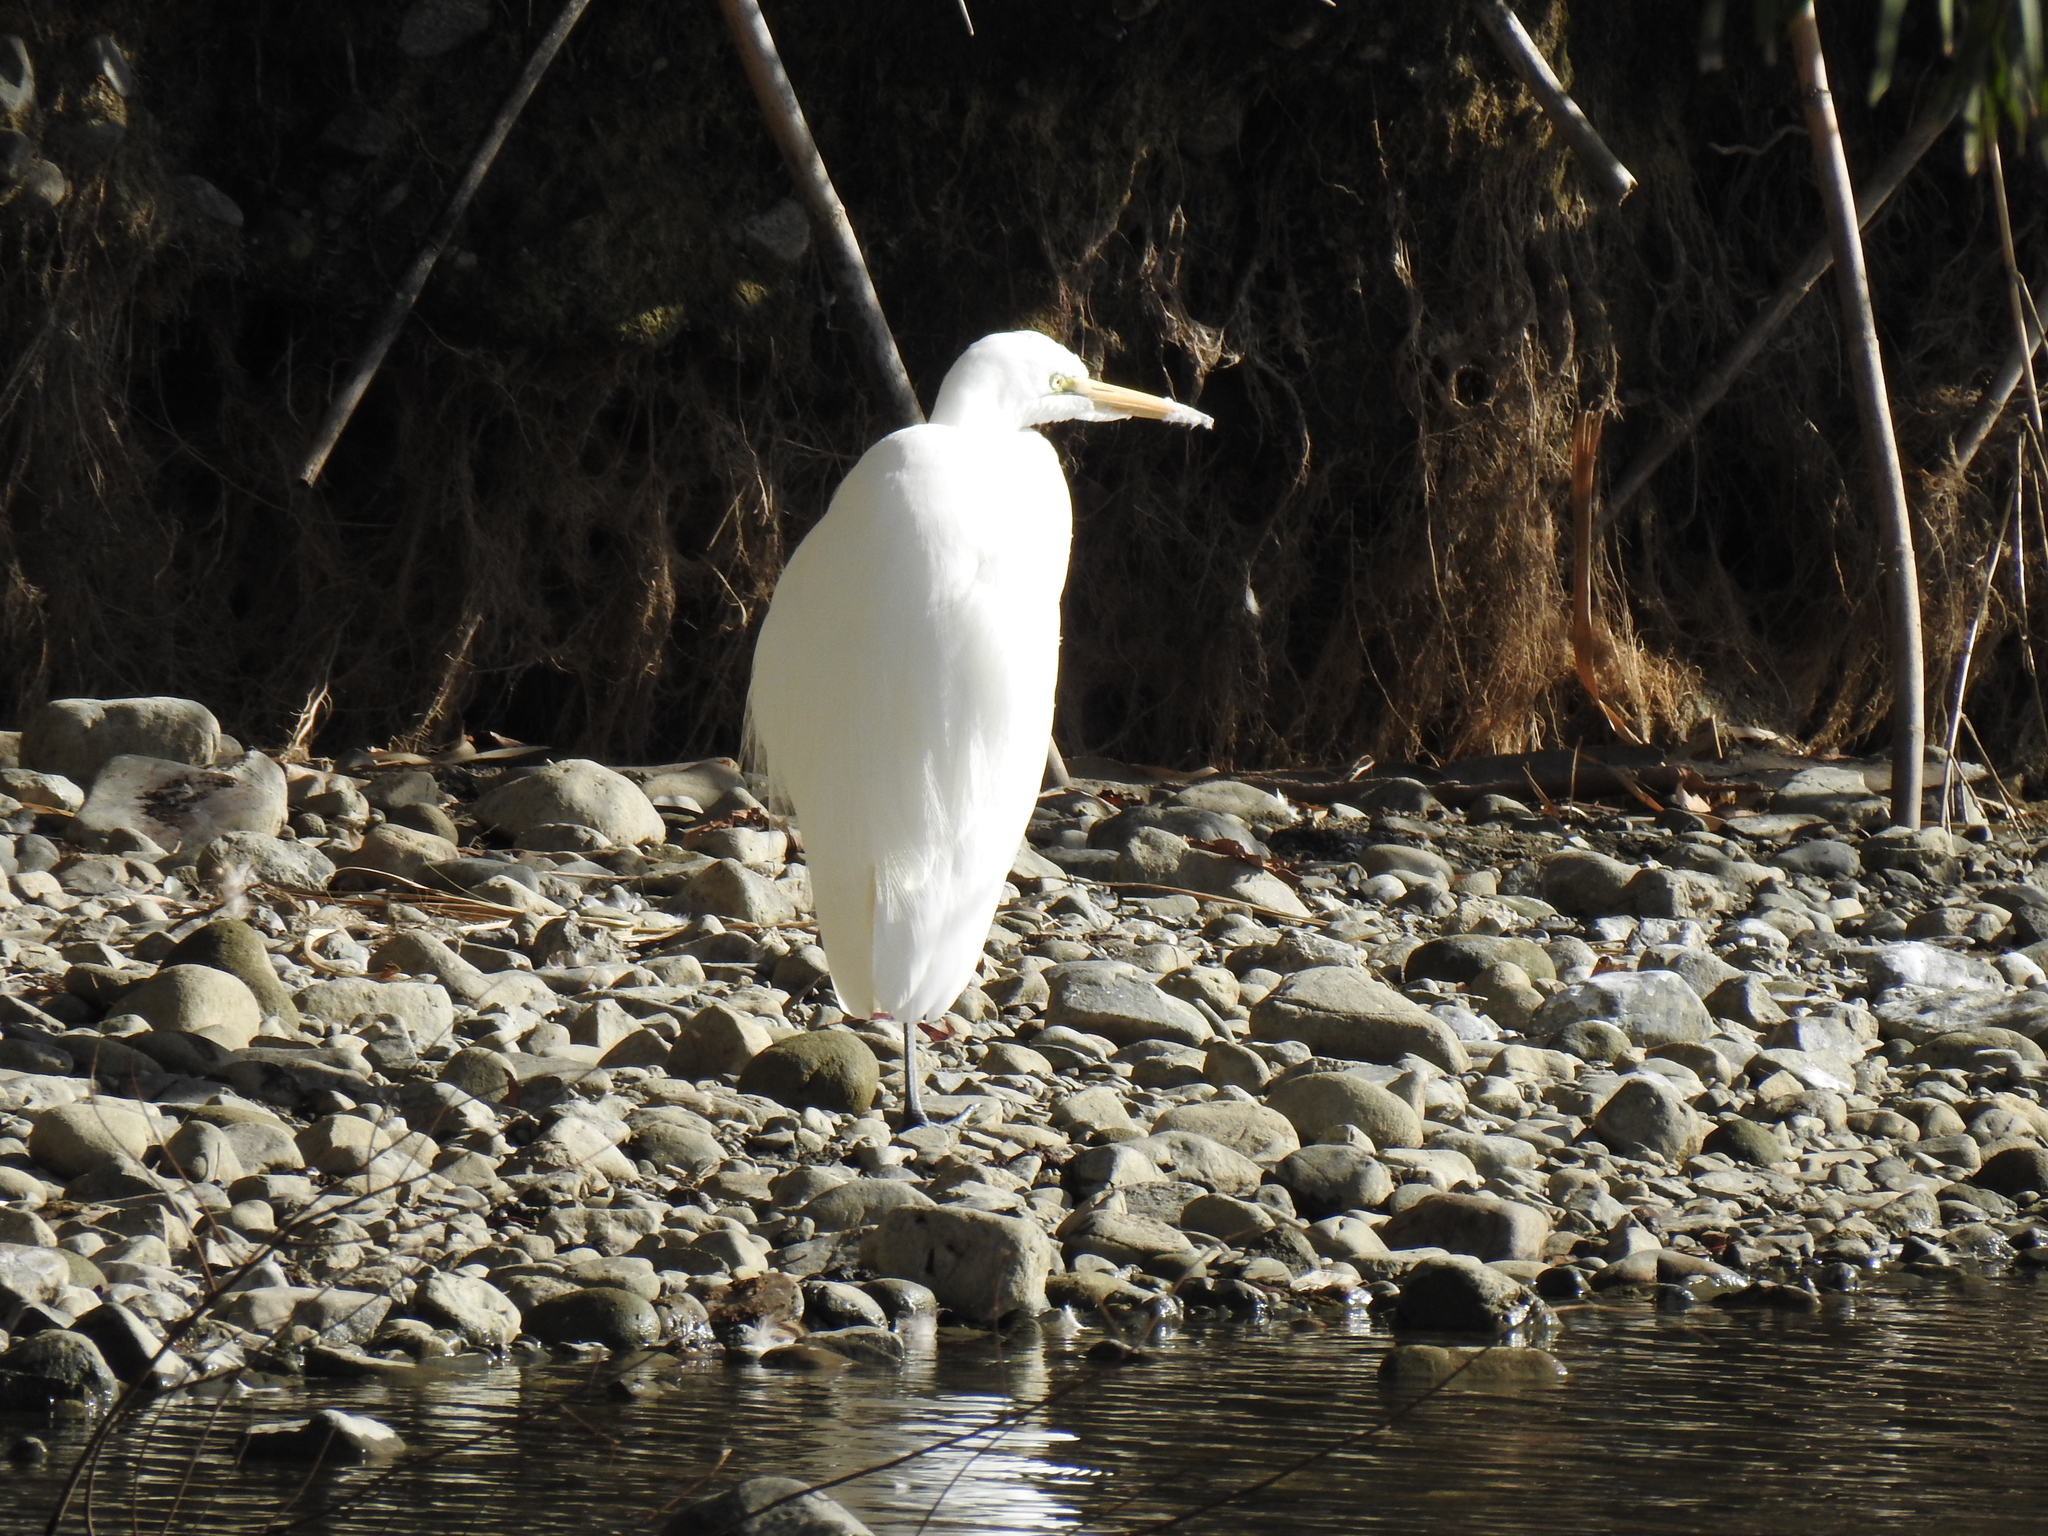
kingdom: Animalia
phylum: Chordata
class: Aves
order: Pelecaniformes
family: Ardeidae
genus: Ardea
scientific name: Ardea alba
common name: Great egret
